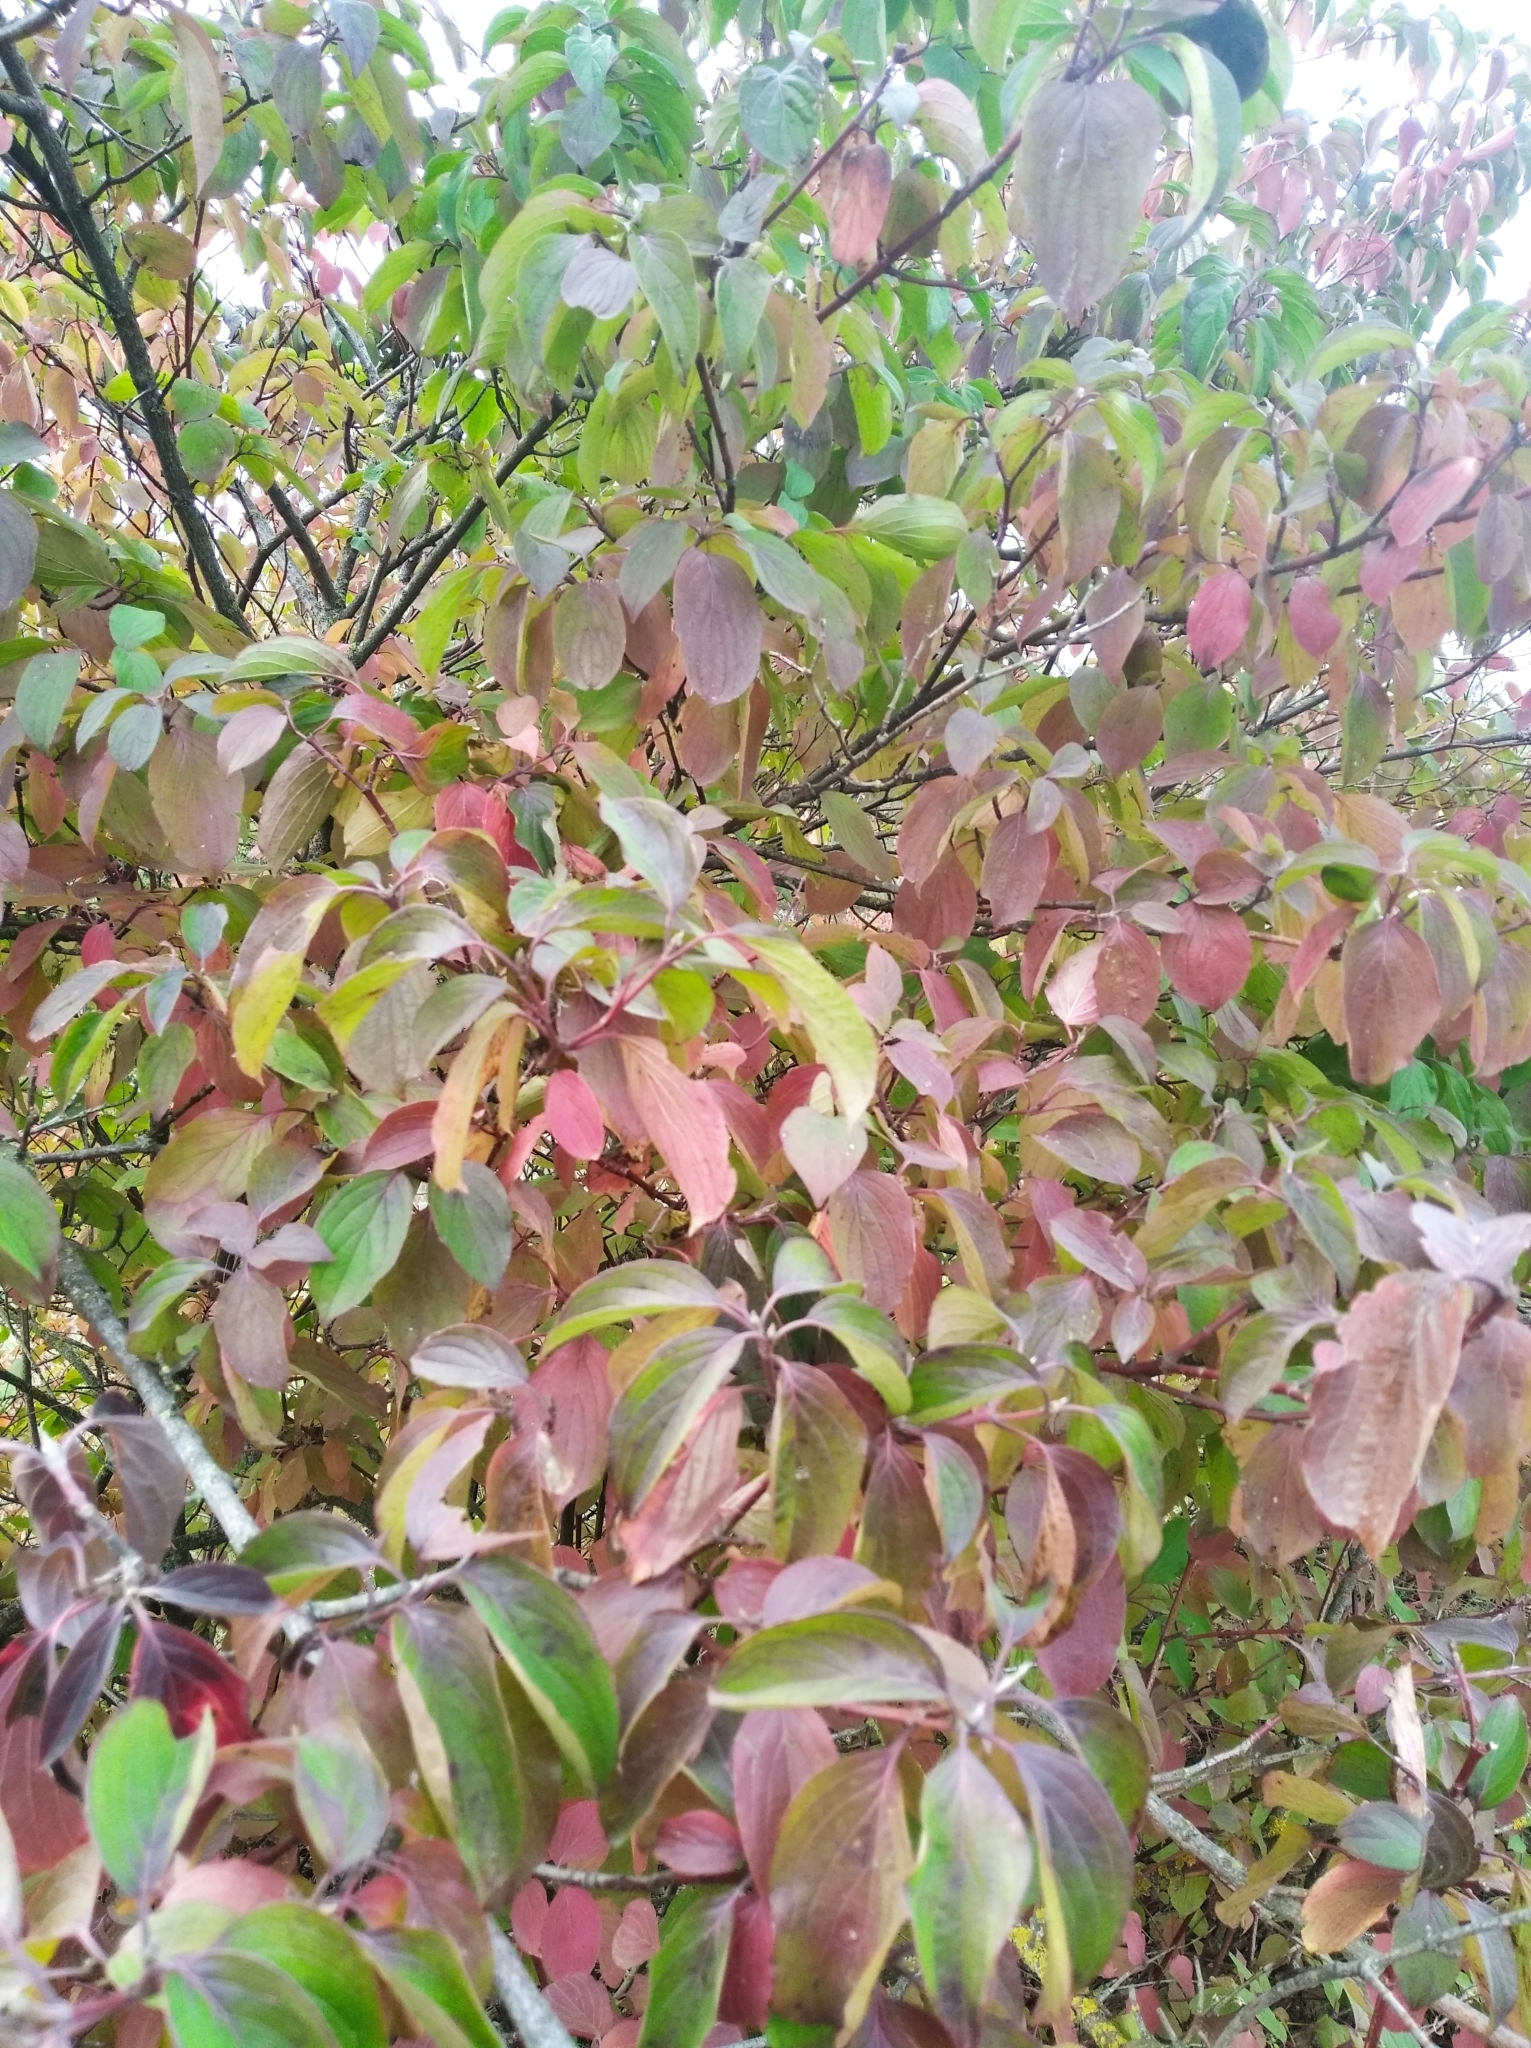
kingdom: Plantae
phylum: Tracheophyta
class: Magnoliopsida
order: Cornales
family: Cornaceae
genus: Cornus
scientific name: Cornus sanguinea
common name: Dogwood
